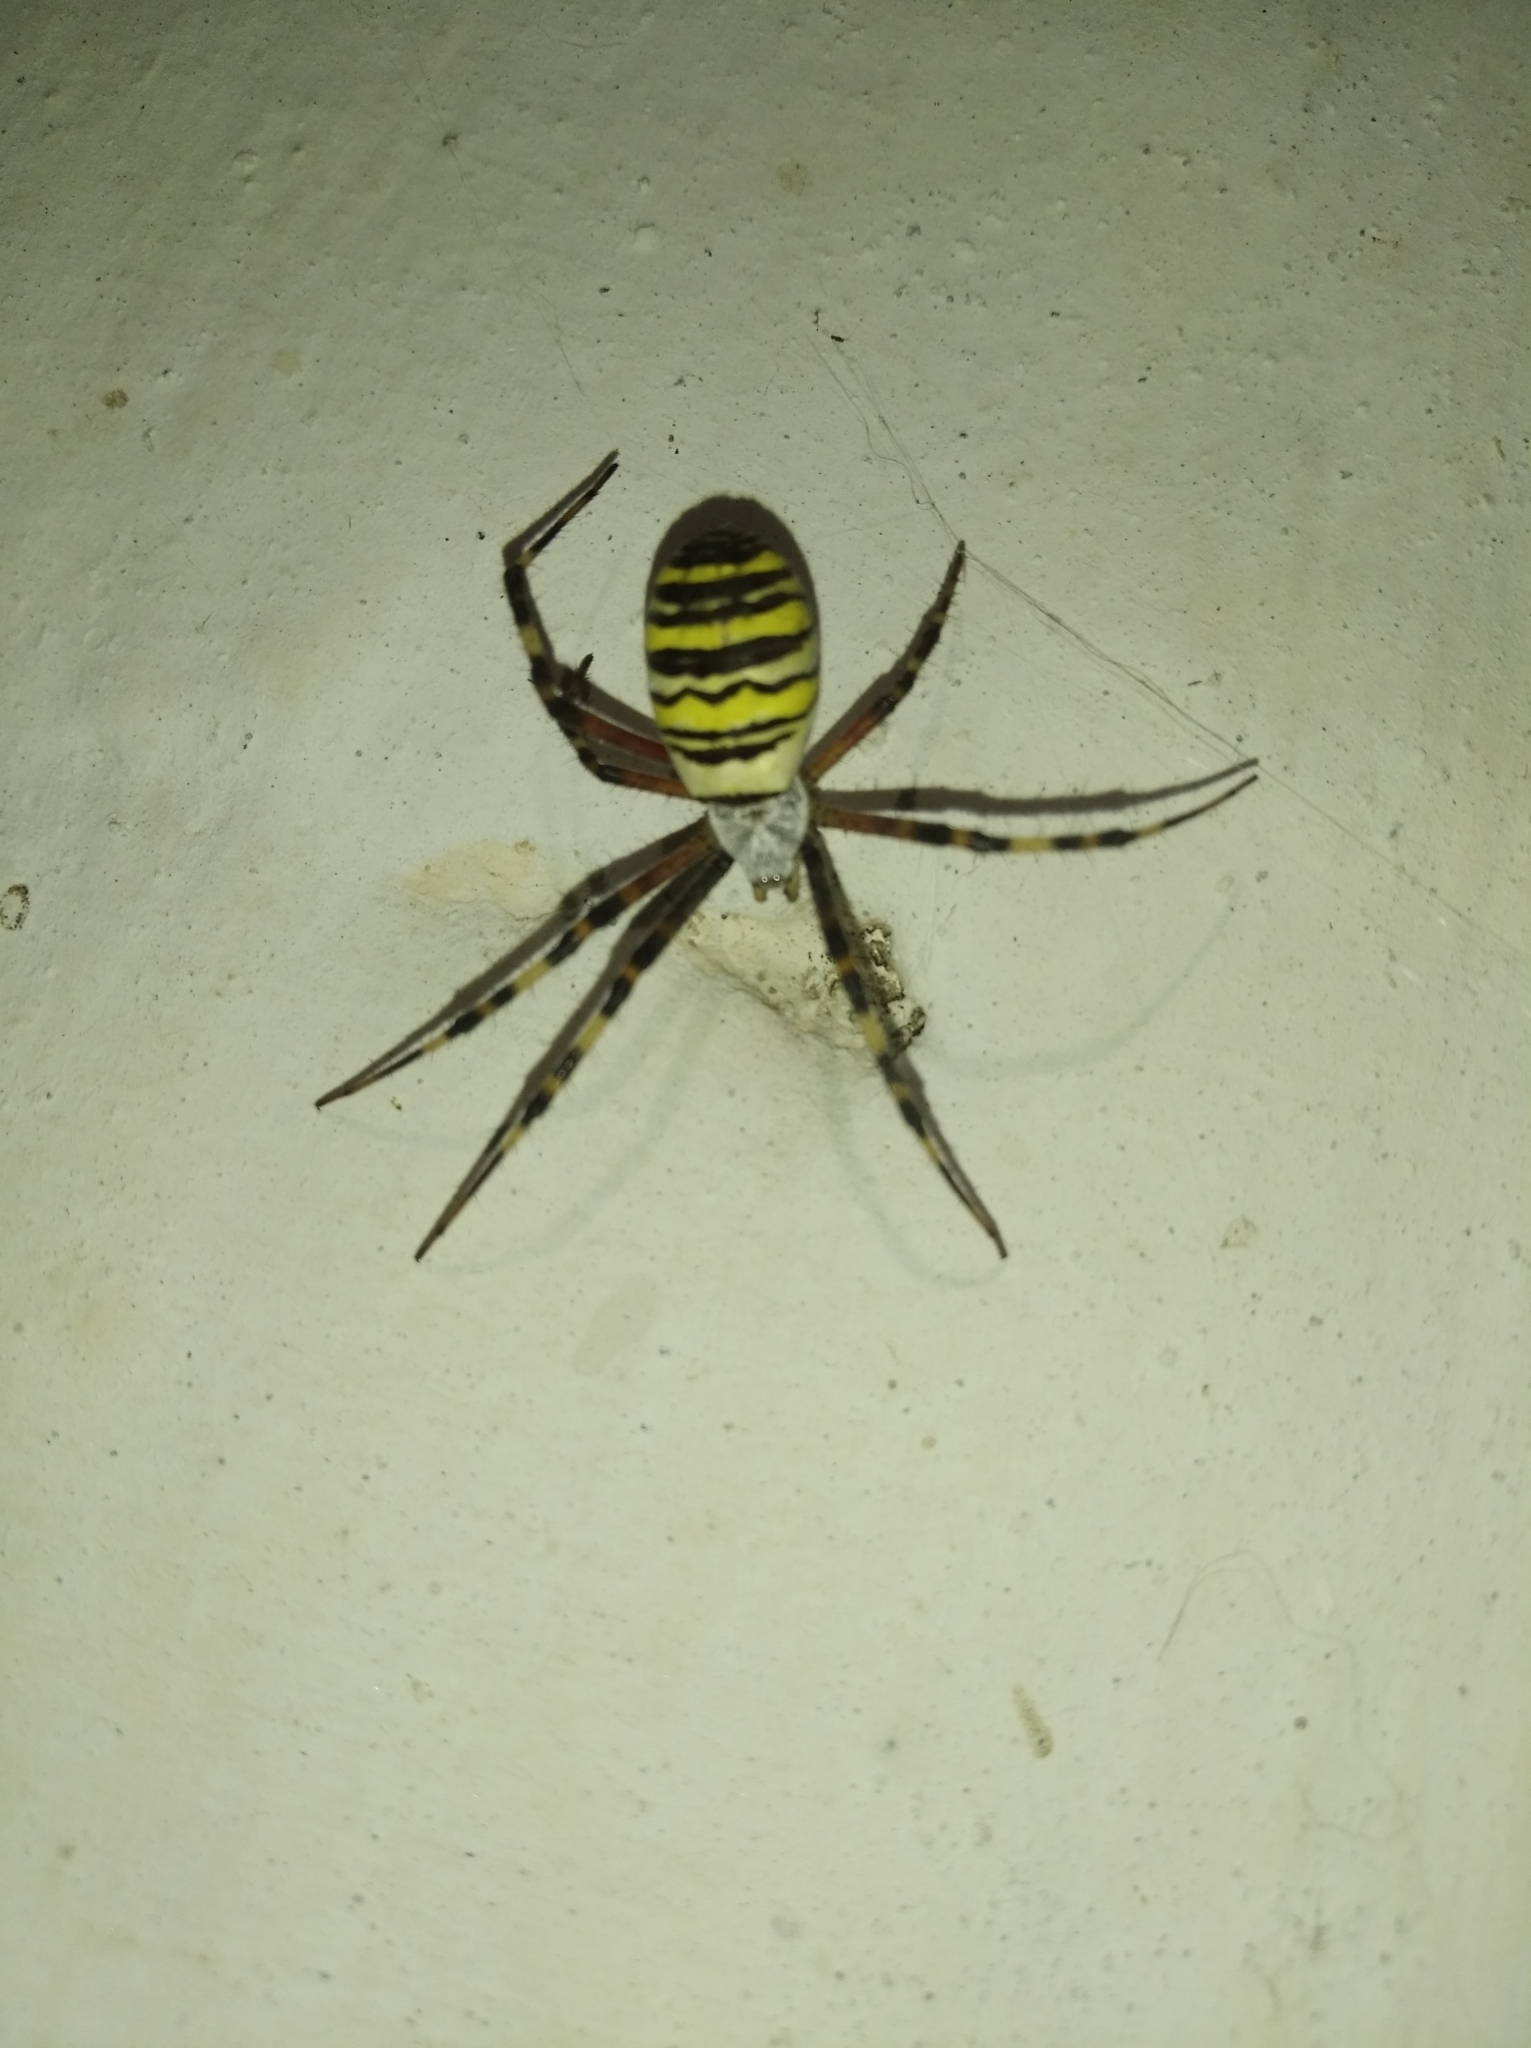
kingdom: Animalia
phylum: Arthropoda
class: Arachnida
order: Araneae
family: Araneidae
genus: Argiope
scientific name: Argiope bruennichi
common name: Wasp spider
